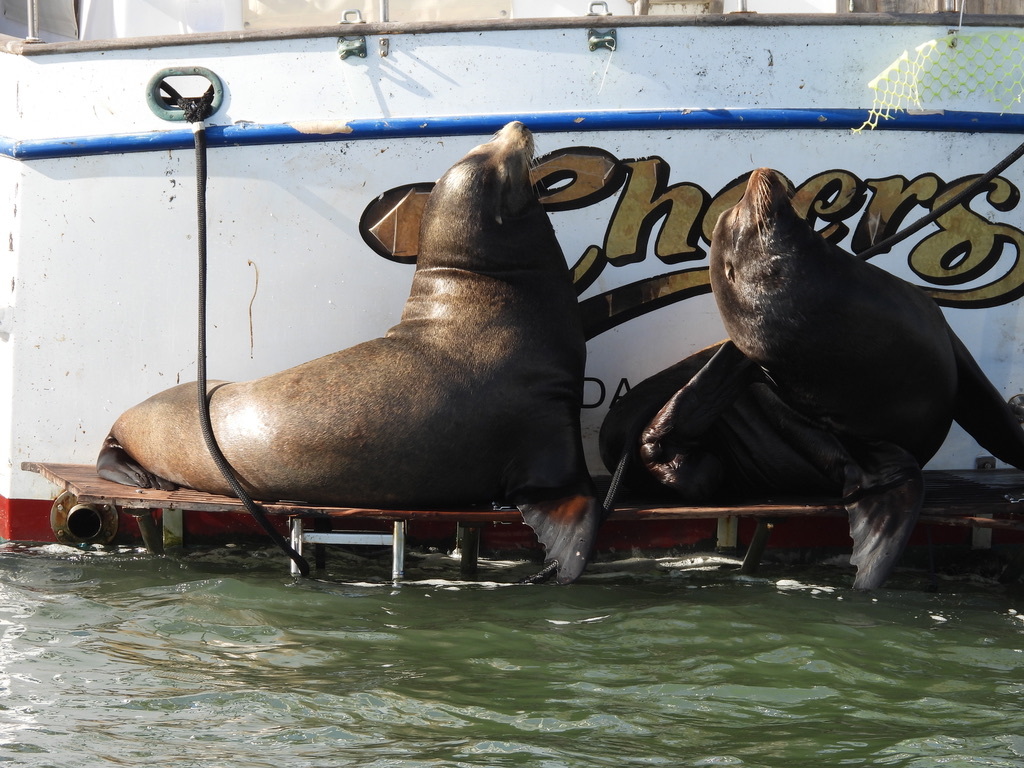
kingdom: Animalia
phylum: Chordata
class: Mammalia
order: Carnivora
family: Otariidae
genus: Zalophus
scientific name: Zalophus californianus
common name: California sea lion
